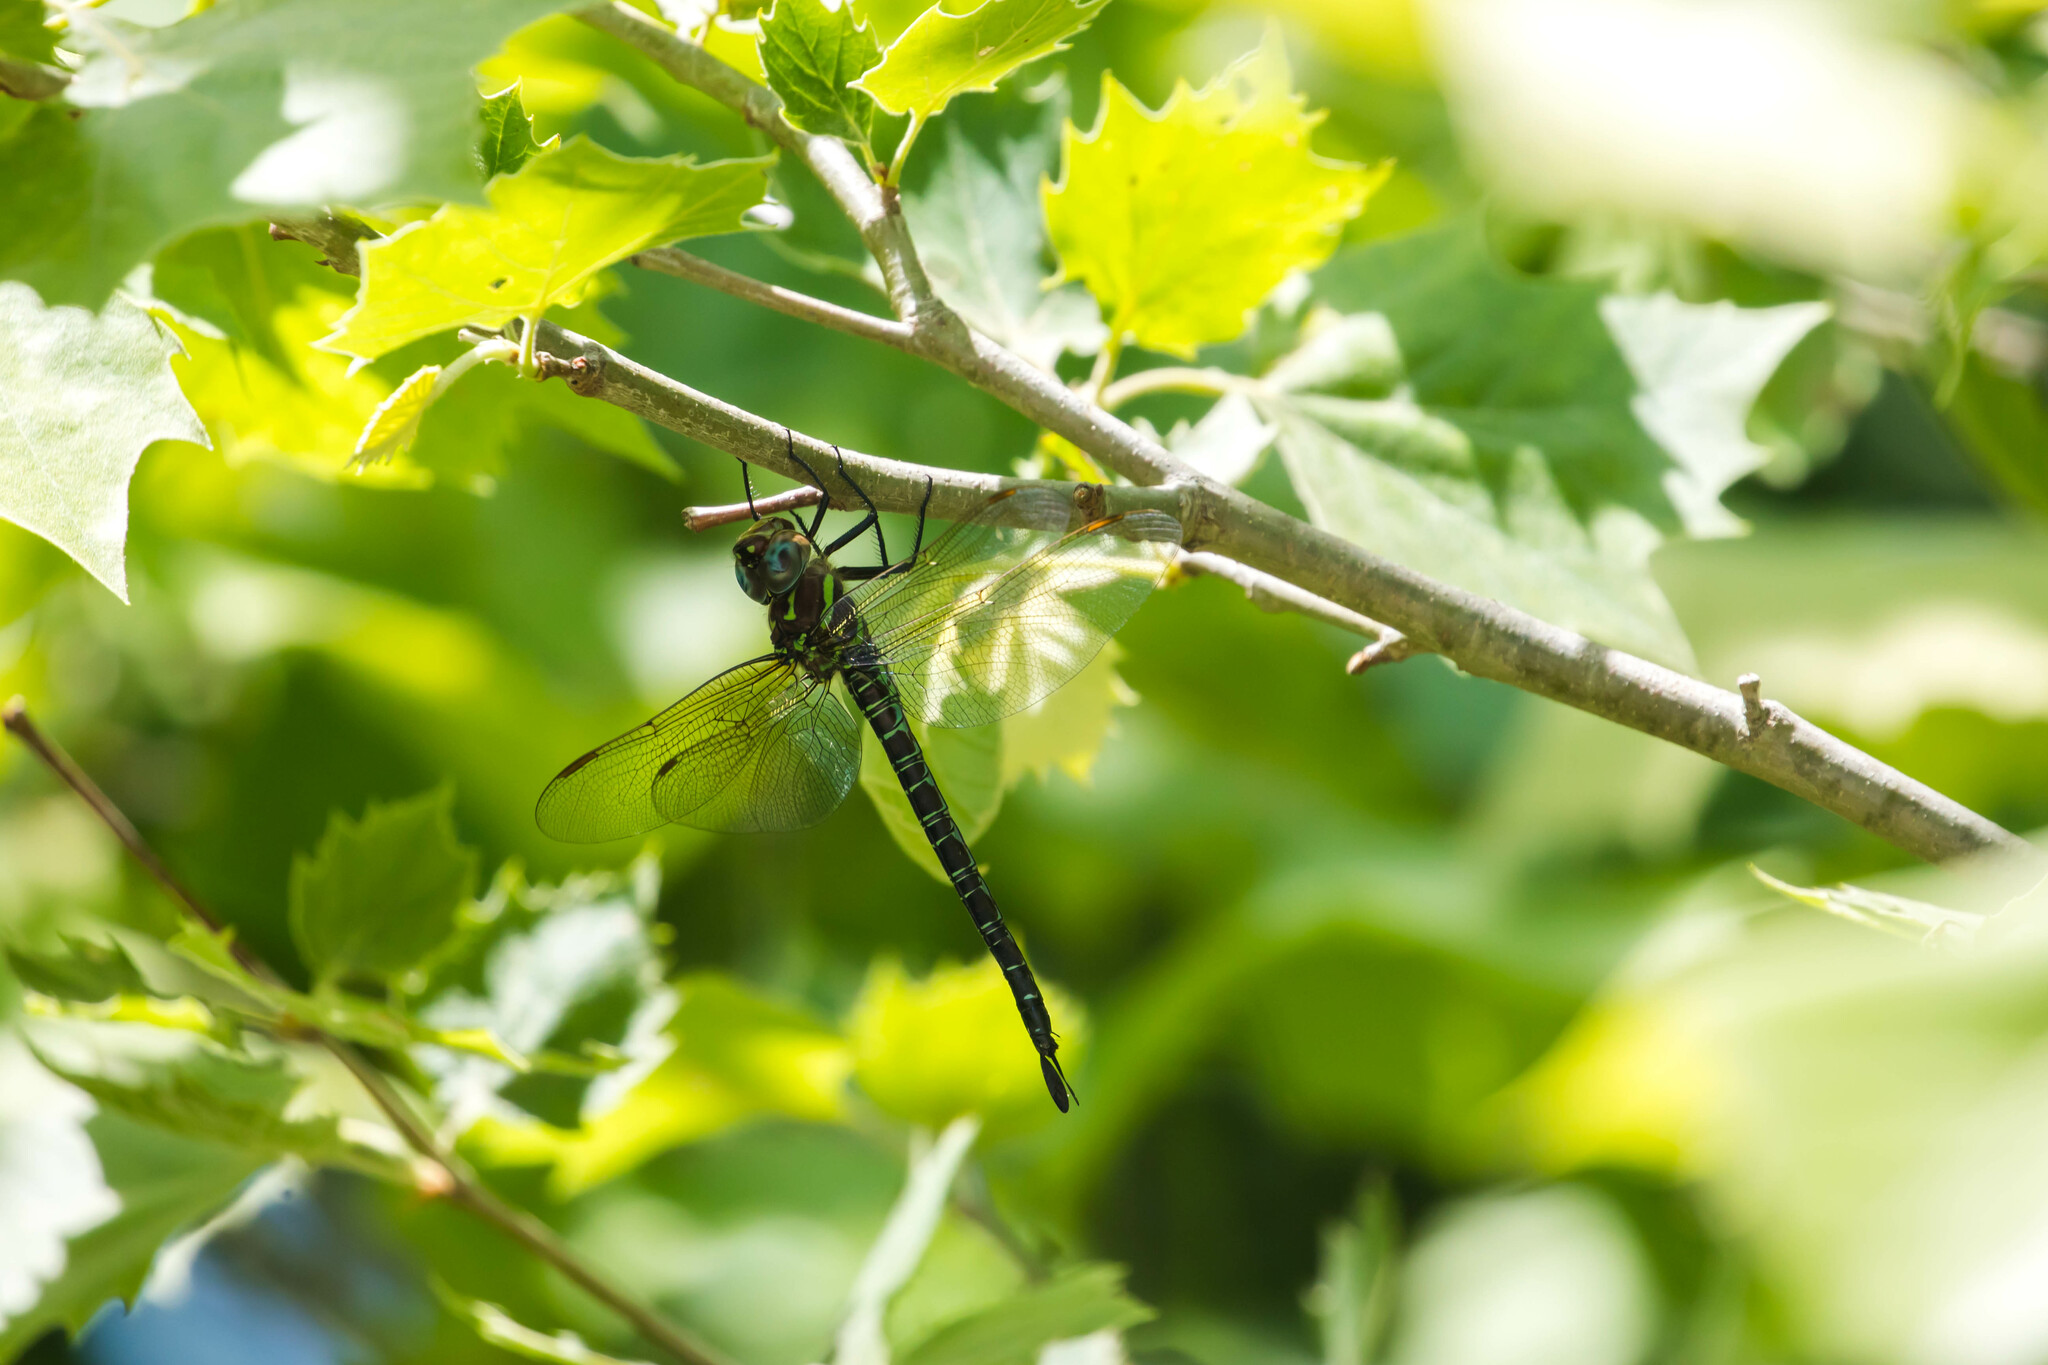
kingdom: Animalia
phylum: Arthropoda
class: Insecta
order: Odonata
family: Aeshnidae
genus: Epiaeschna
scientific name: Epiaeschna heros
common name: Swamp darner
